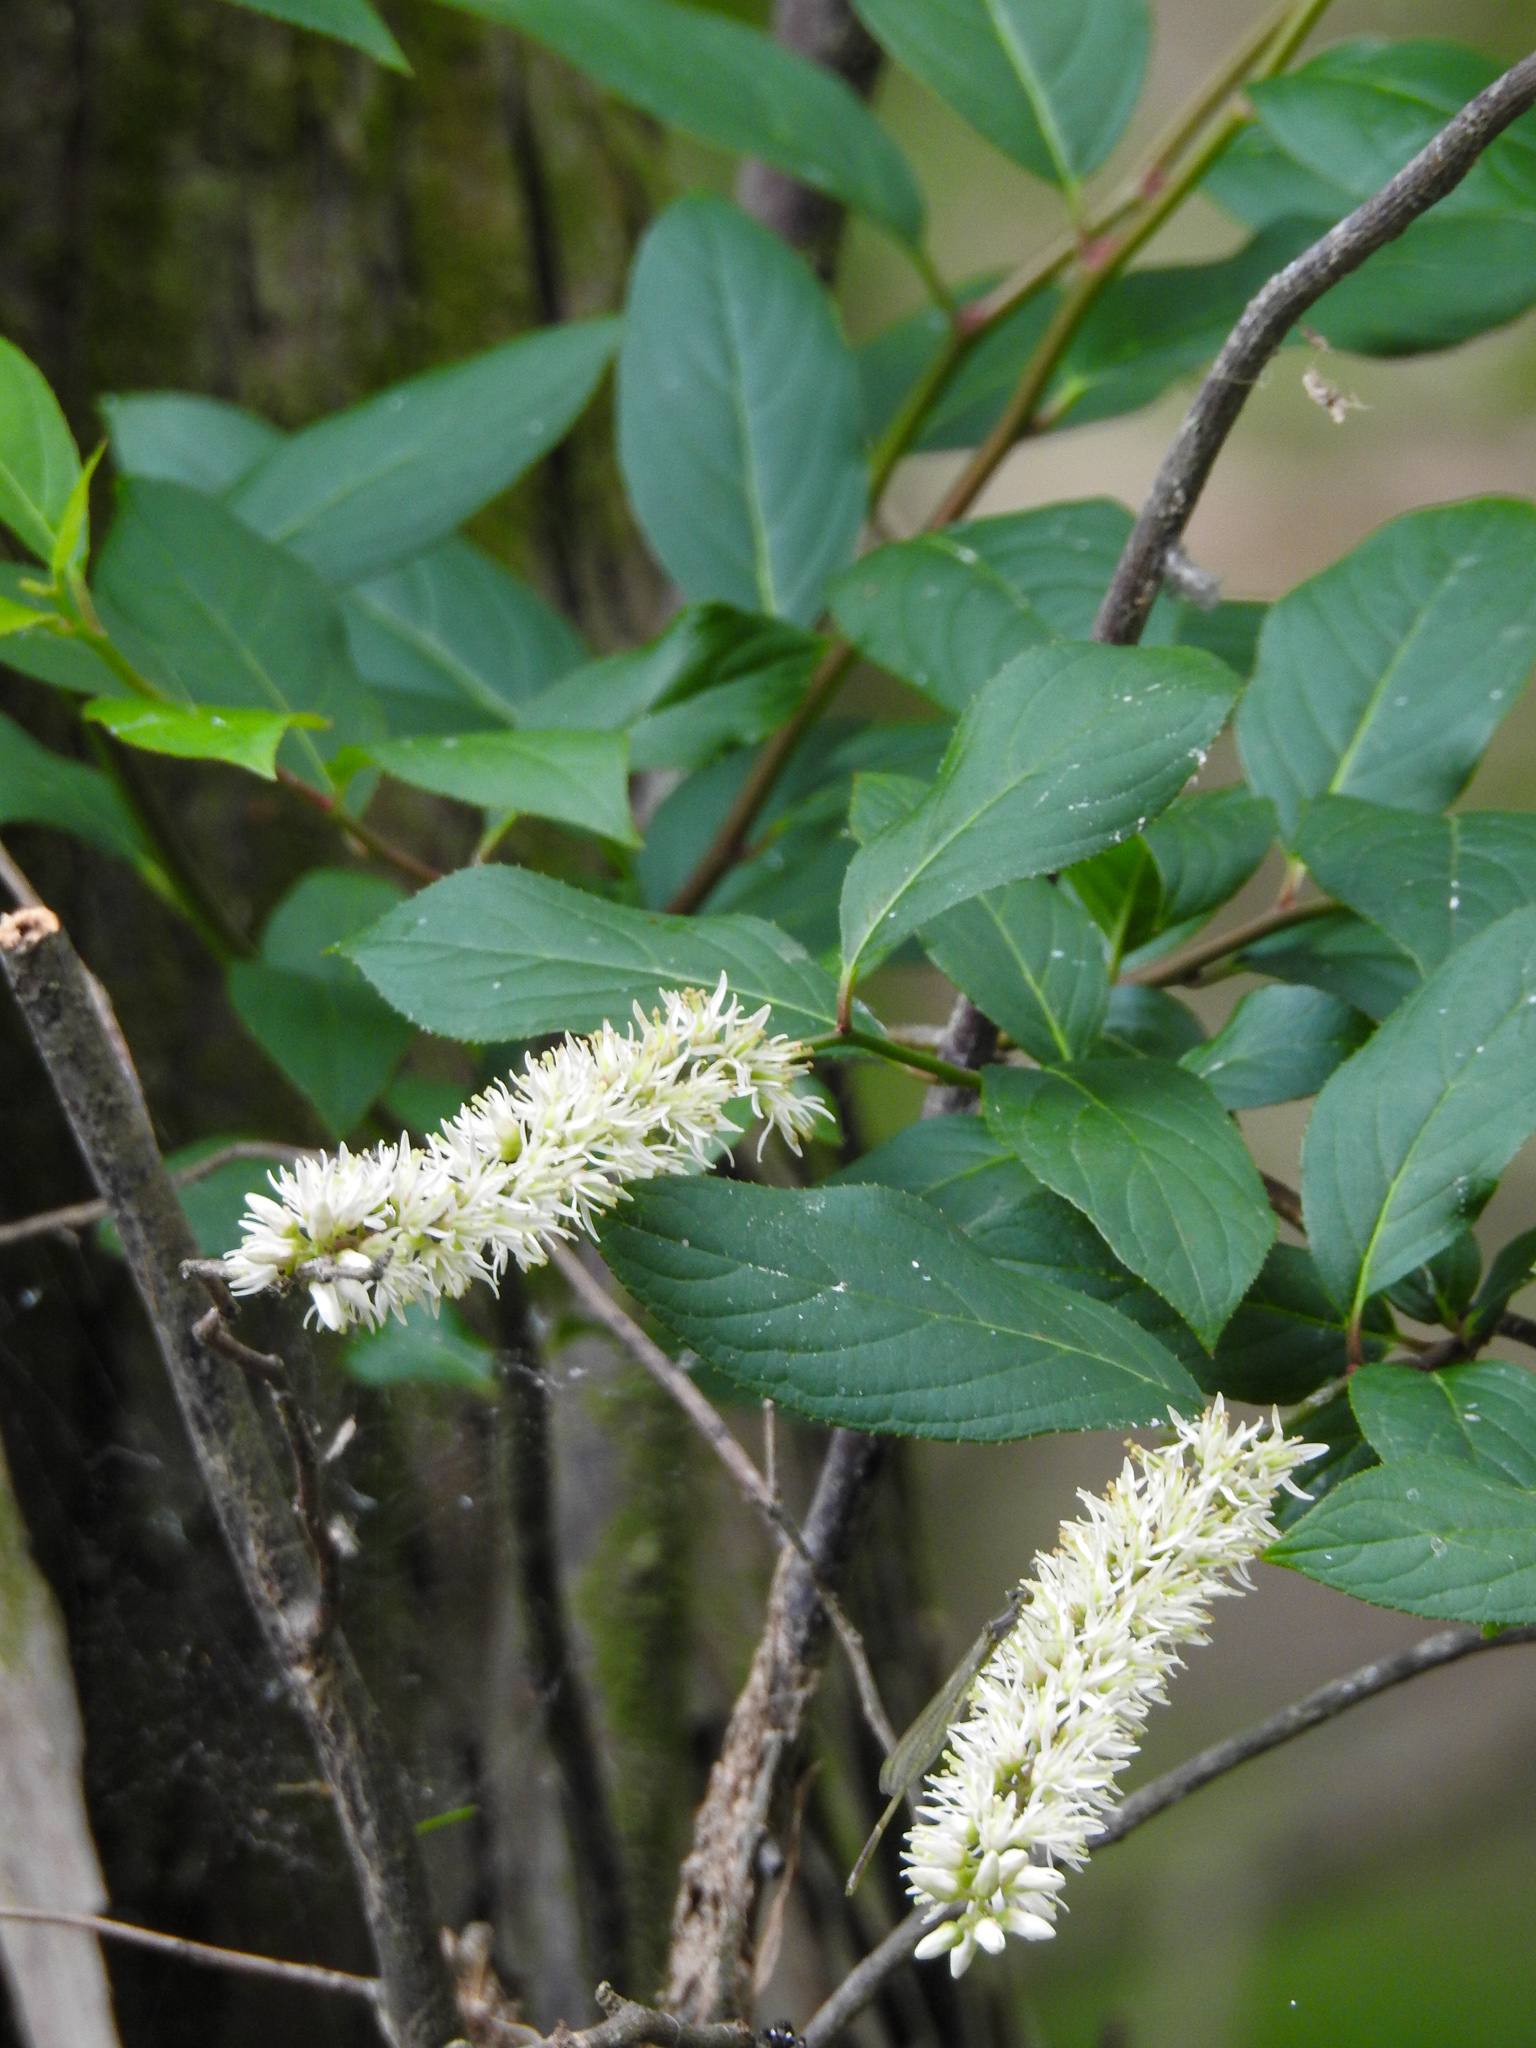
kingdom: Plantae
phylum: Tracheophyta
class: Magnoliopsida
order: Saxifragales
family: Iteaceae
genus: Itea
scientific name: Itea virginica
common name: Sweetspire
